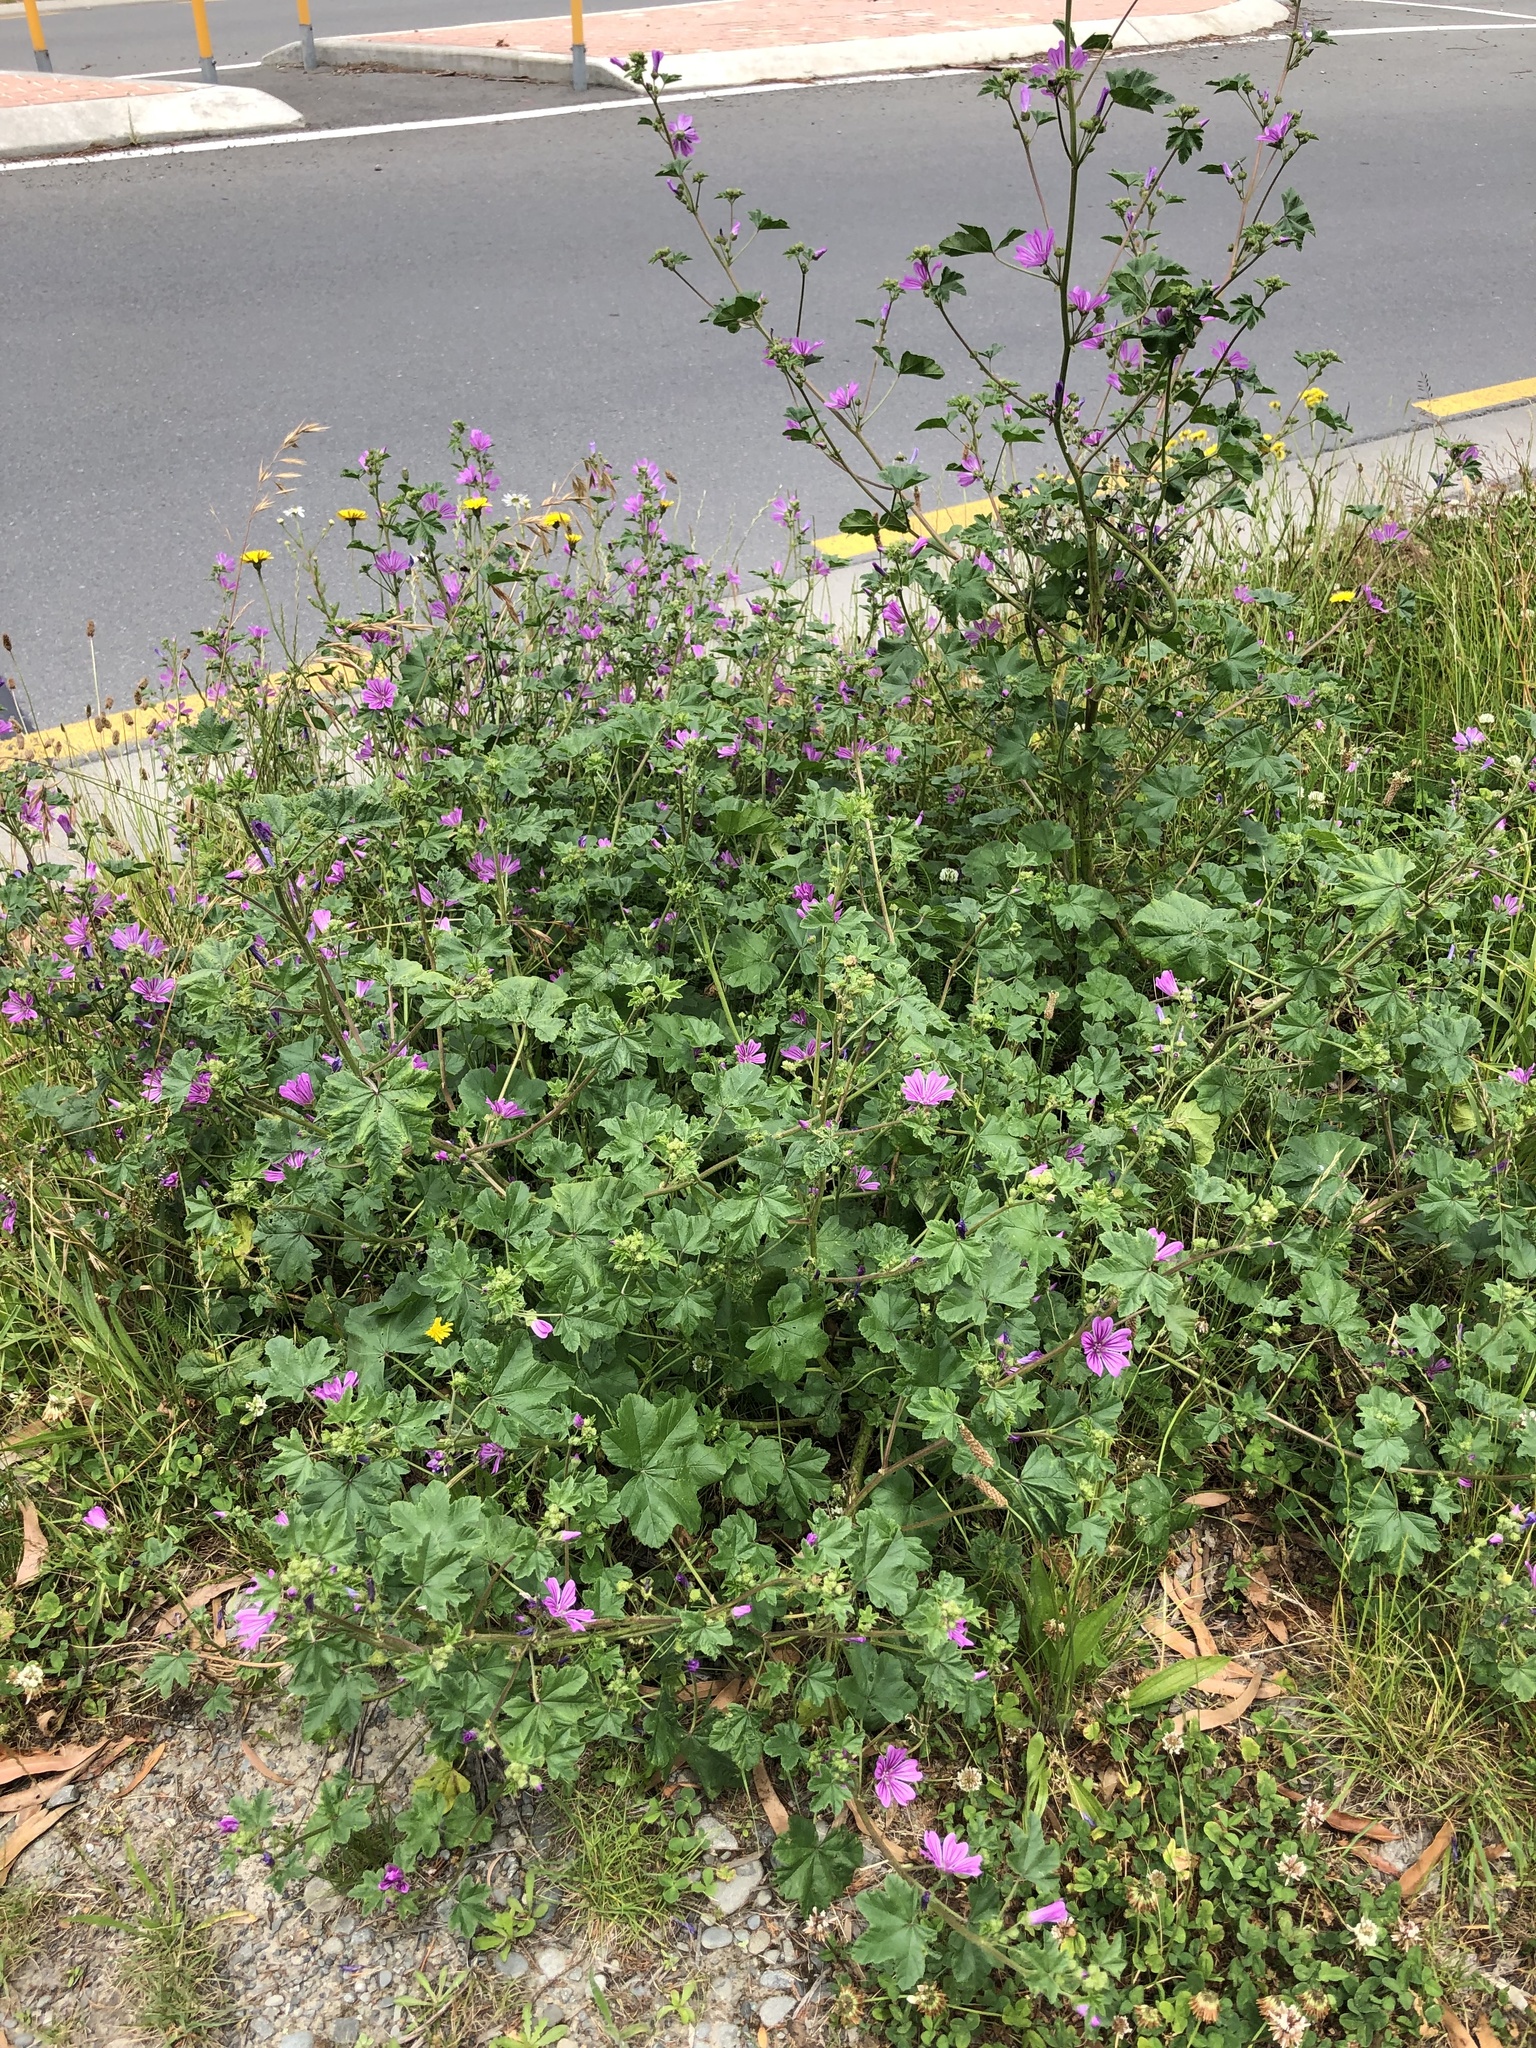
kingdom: Plantae
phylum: Tracheophyta
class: Magnoliopsida
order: Malvales
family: Malvaceae
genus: Malva
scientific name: Malva sylvestris
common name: Common mallow
